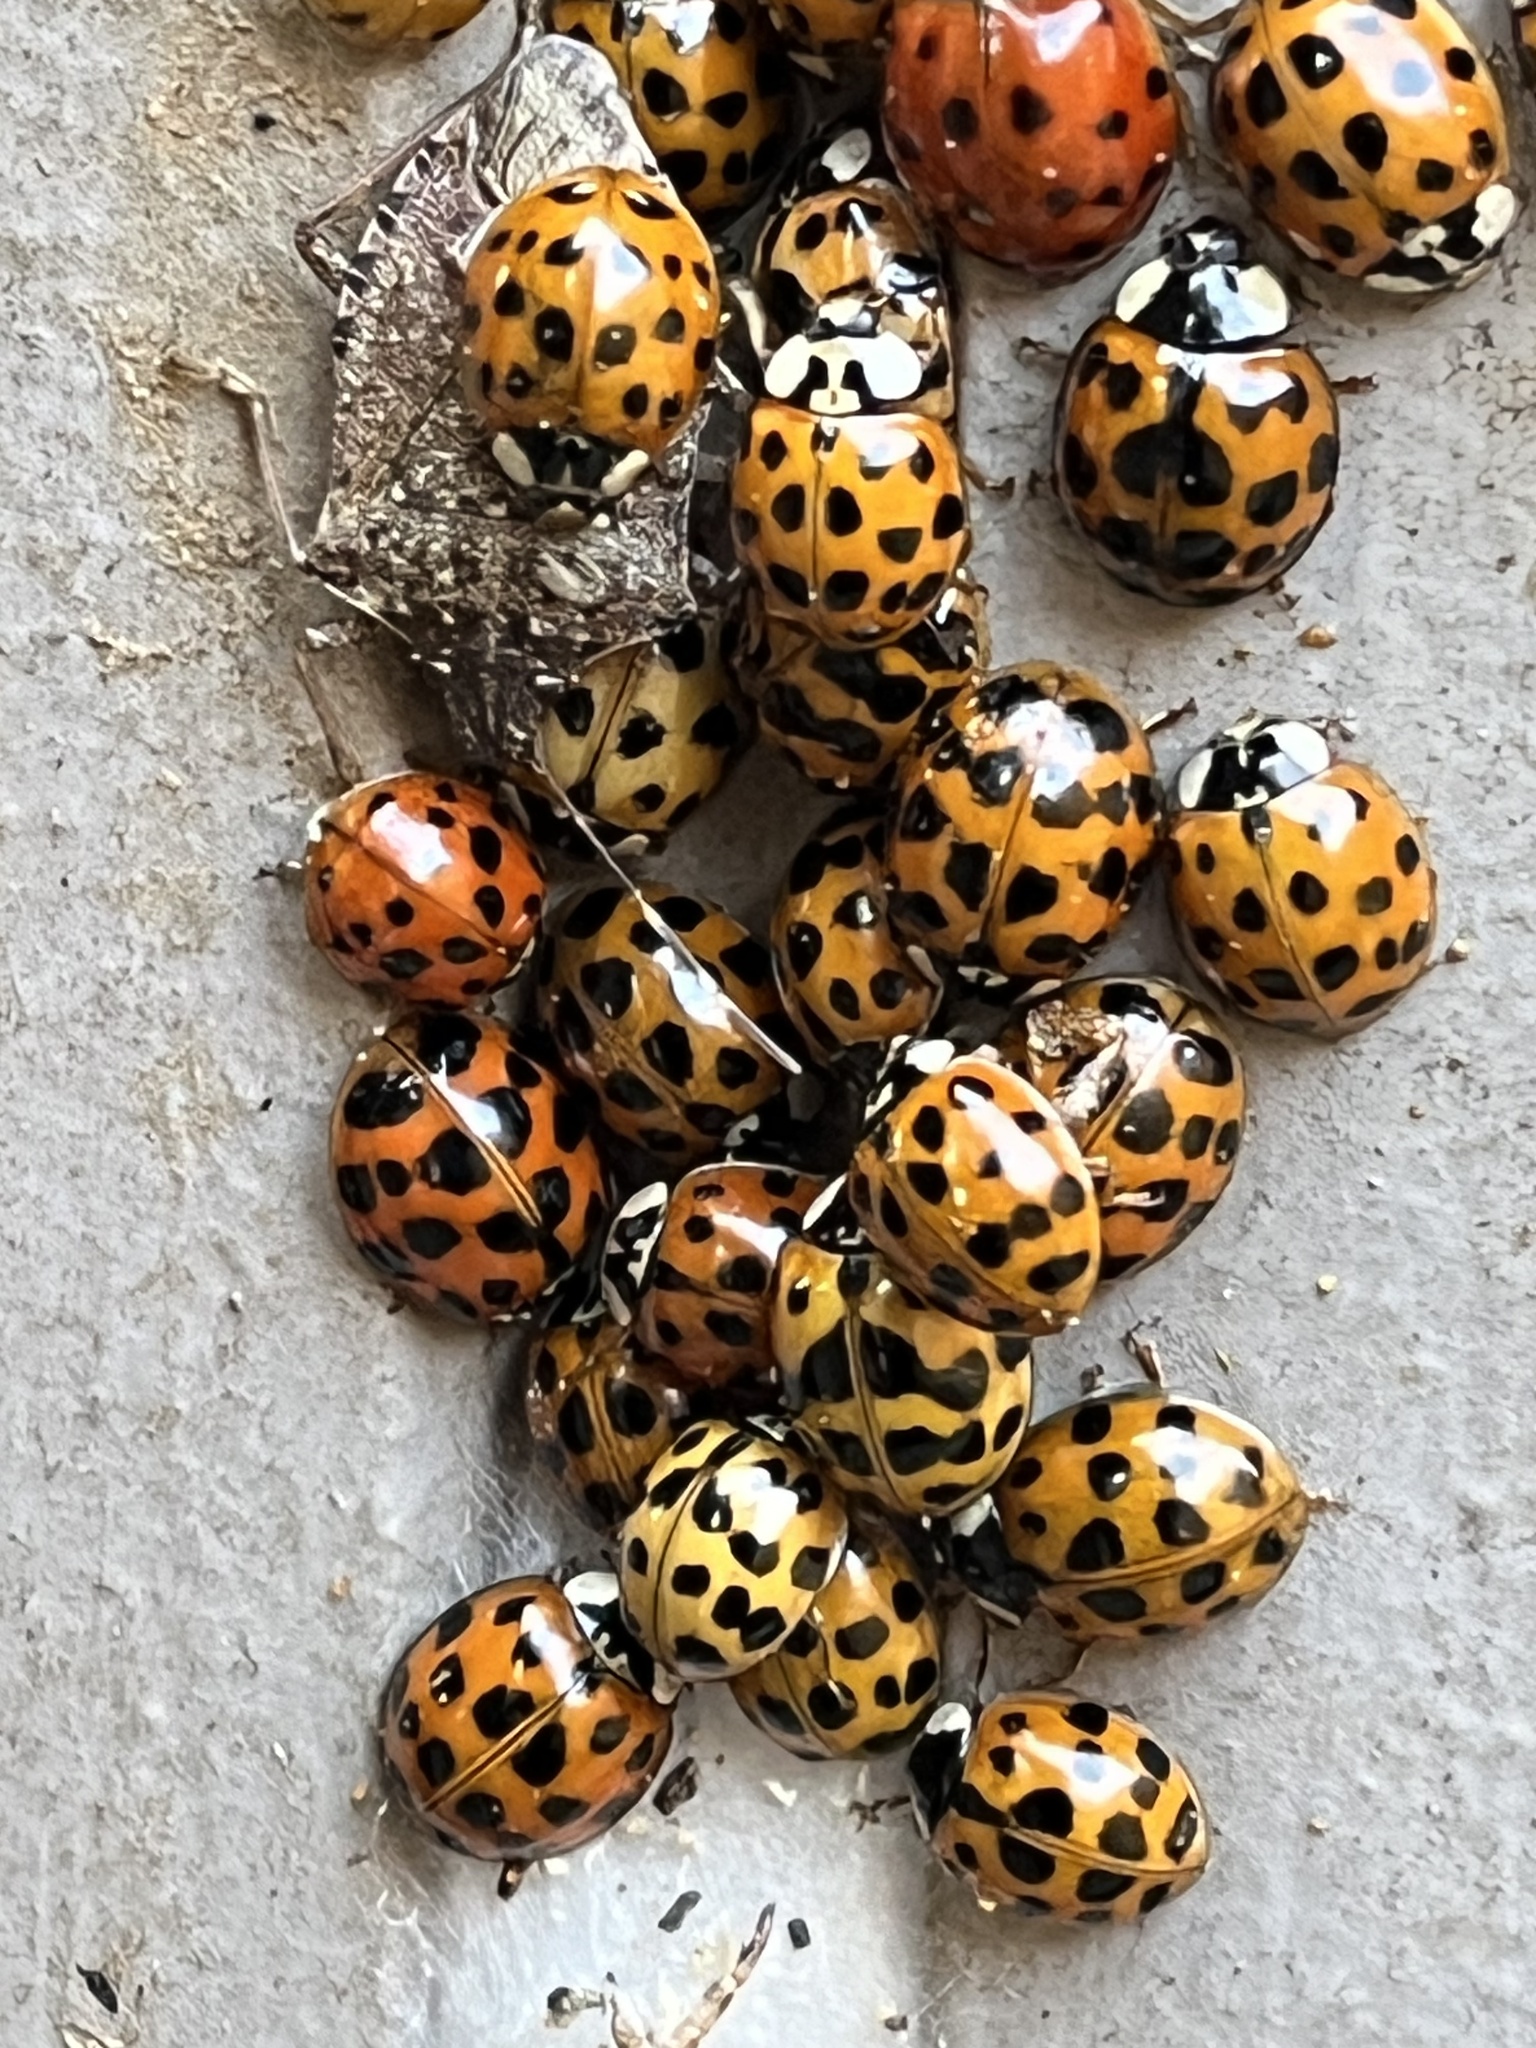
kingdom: Animalia
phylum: Arthropoda
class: Insecta
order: Coleoptera
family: Coccinellidae
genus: Harmonia
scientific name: Harmonia axyridis
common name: Harlequin ladybird
